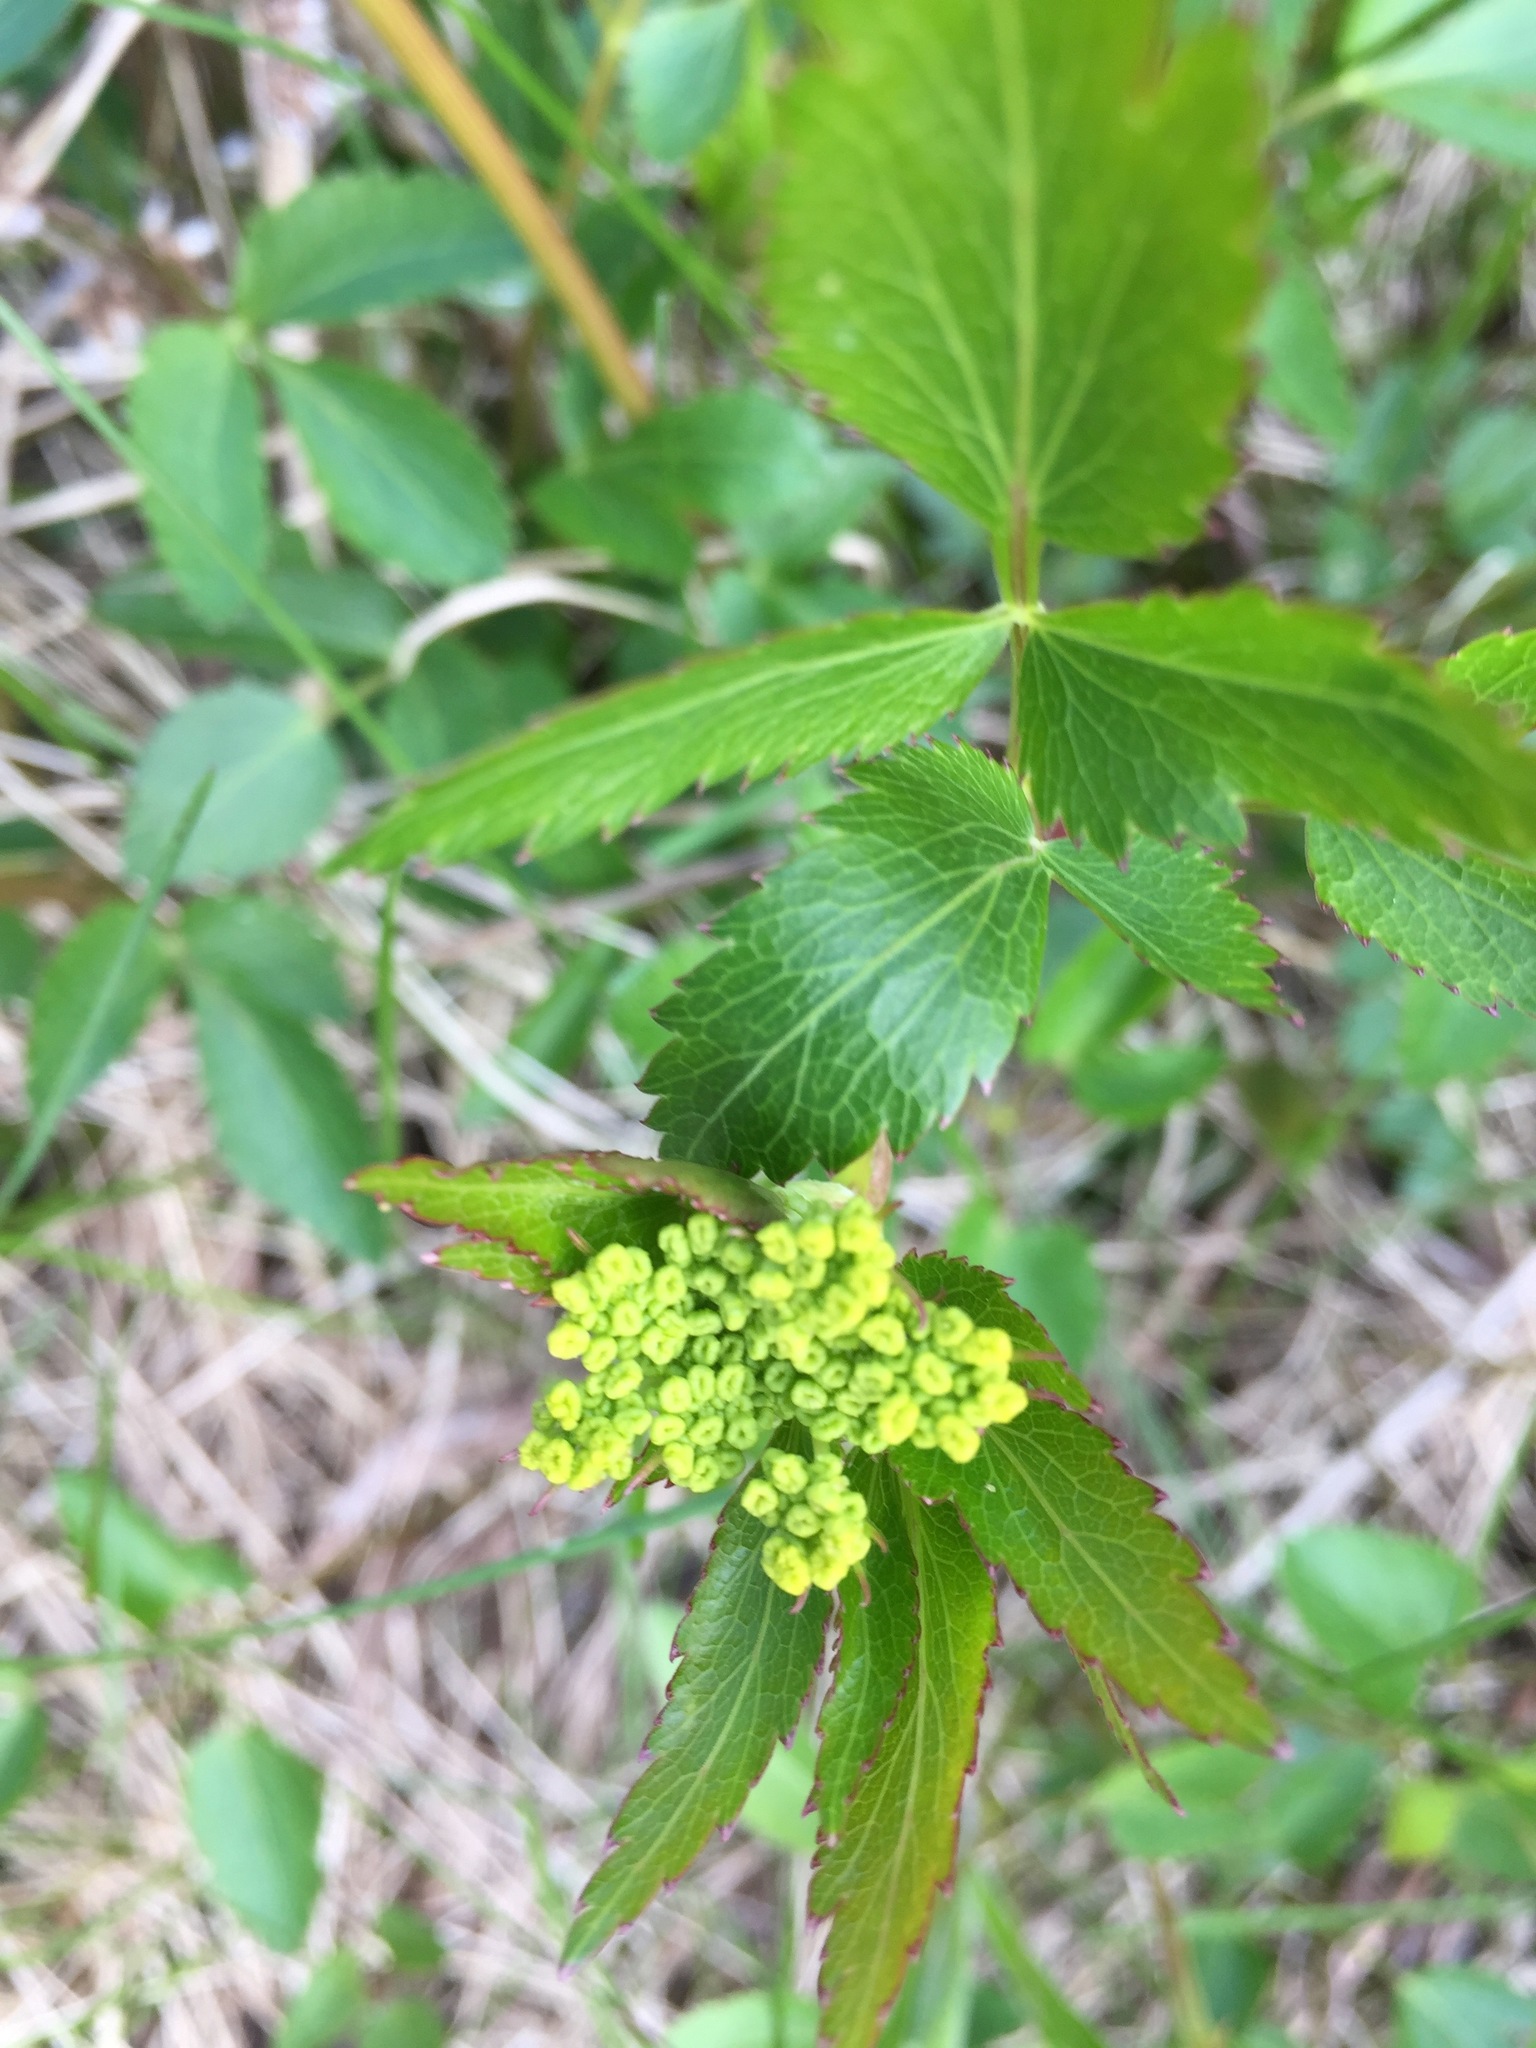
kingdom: Plantae
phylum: Tracheophyta
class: Magnoliopsida
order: Apiales
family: Apiaceae
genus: Zizia
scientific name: Zizia aurea
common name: Golden alexanders
